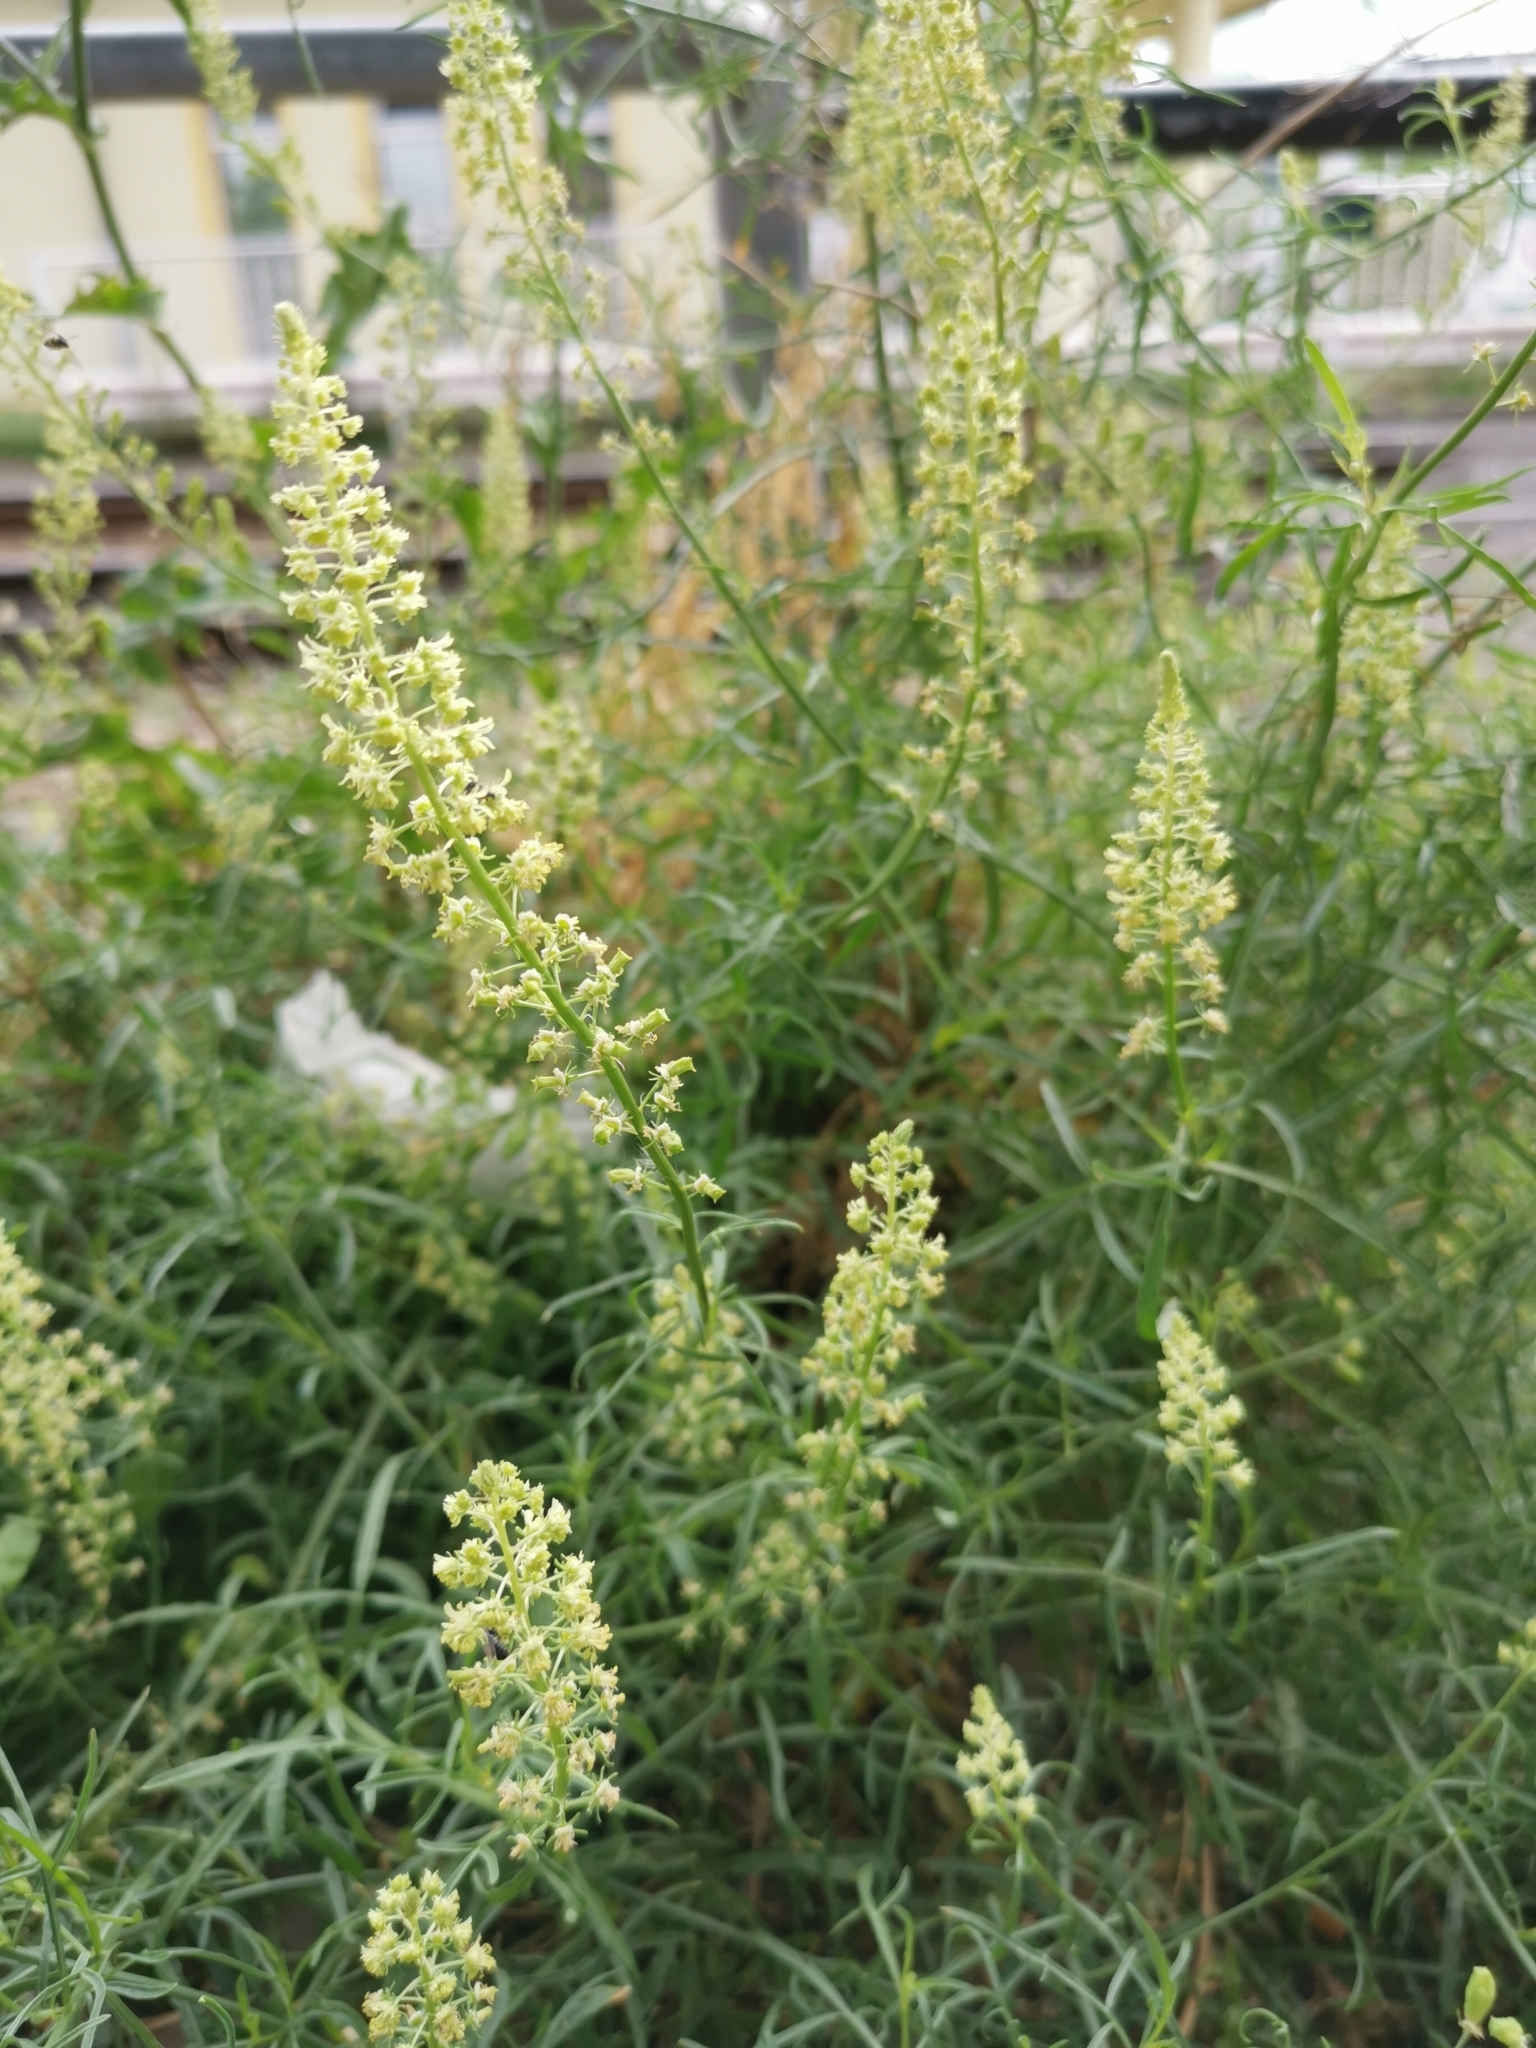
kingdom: Plantae
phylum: Tracheophyta
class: Magnoliopsida
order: Brassicales
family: Resedaceae
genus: Reseda
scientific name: Reseda lutea
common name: Wild mignonette
